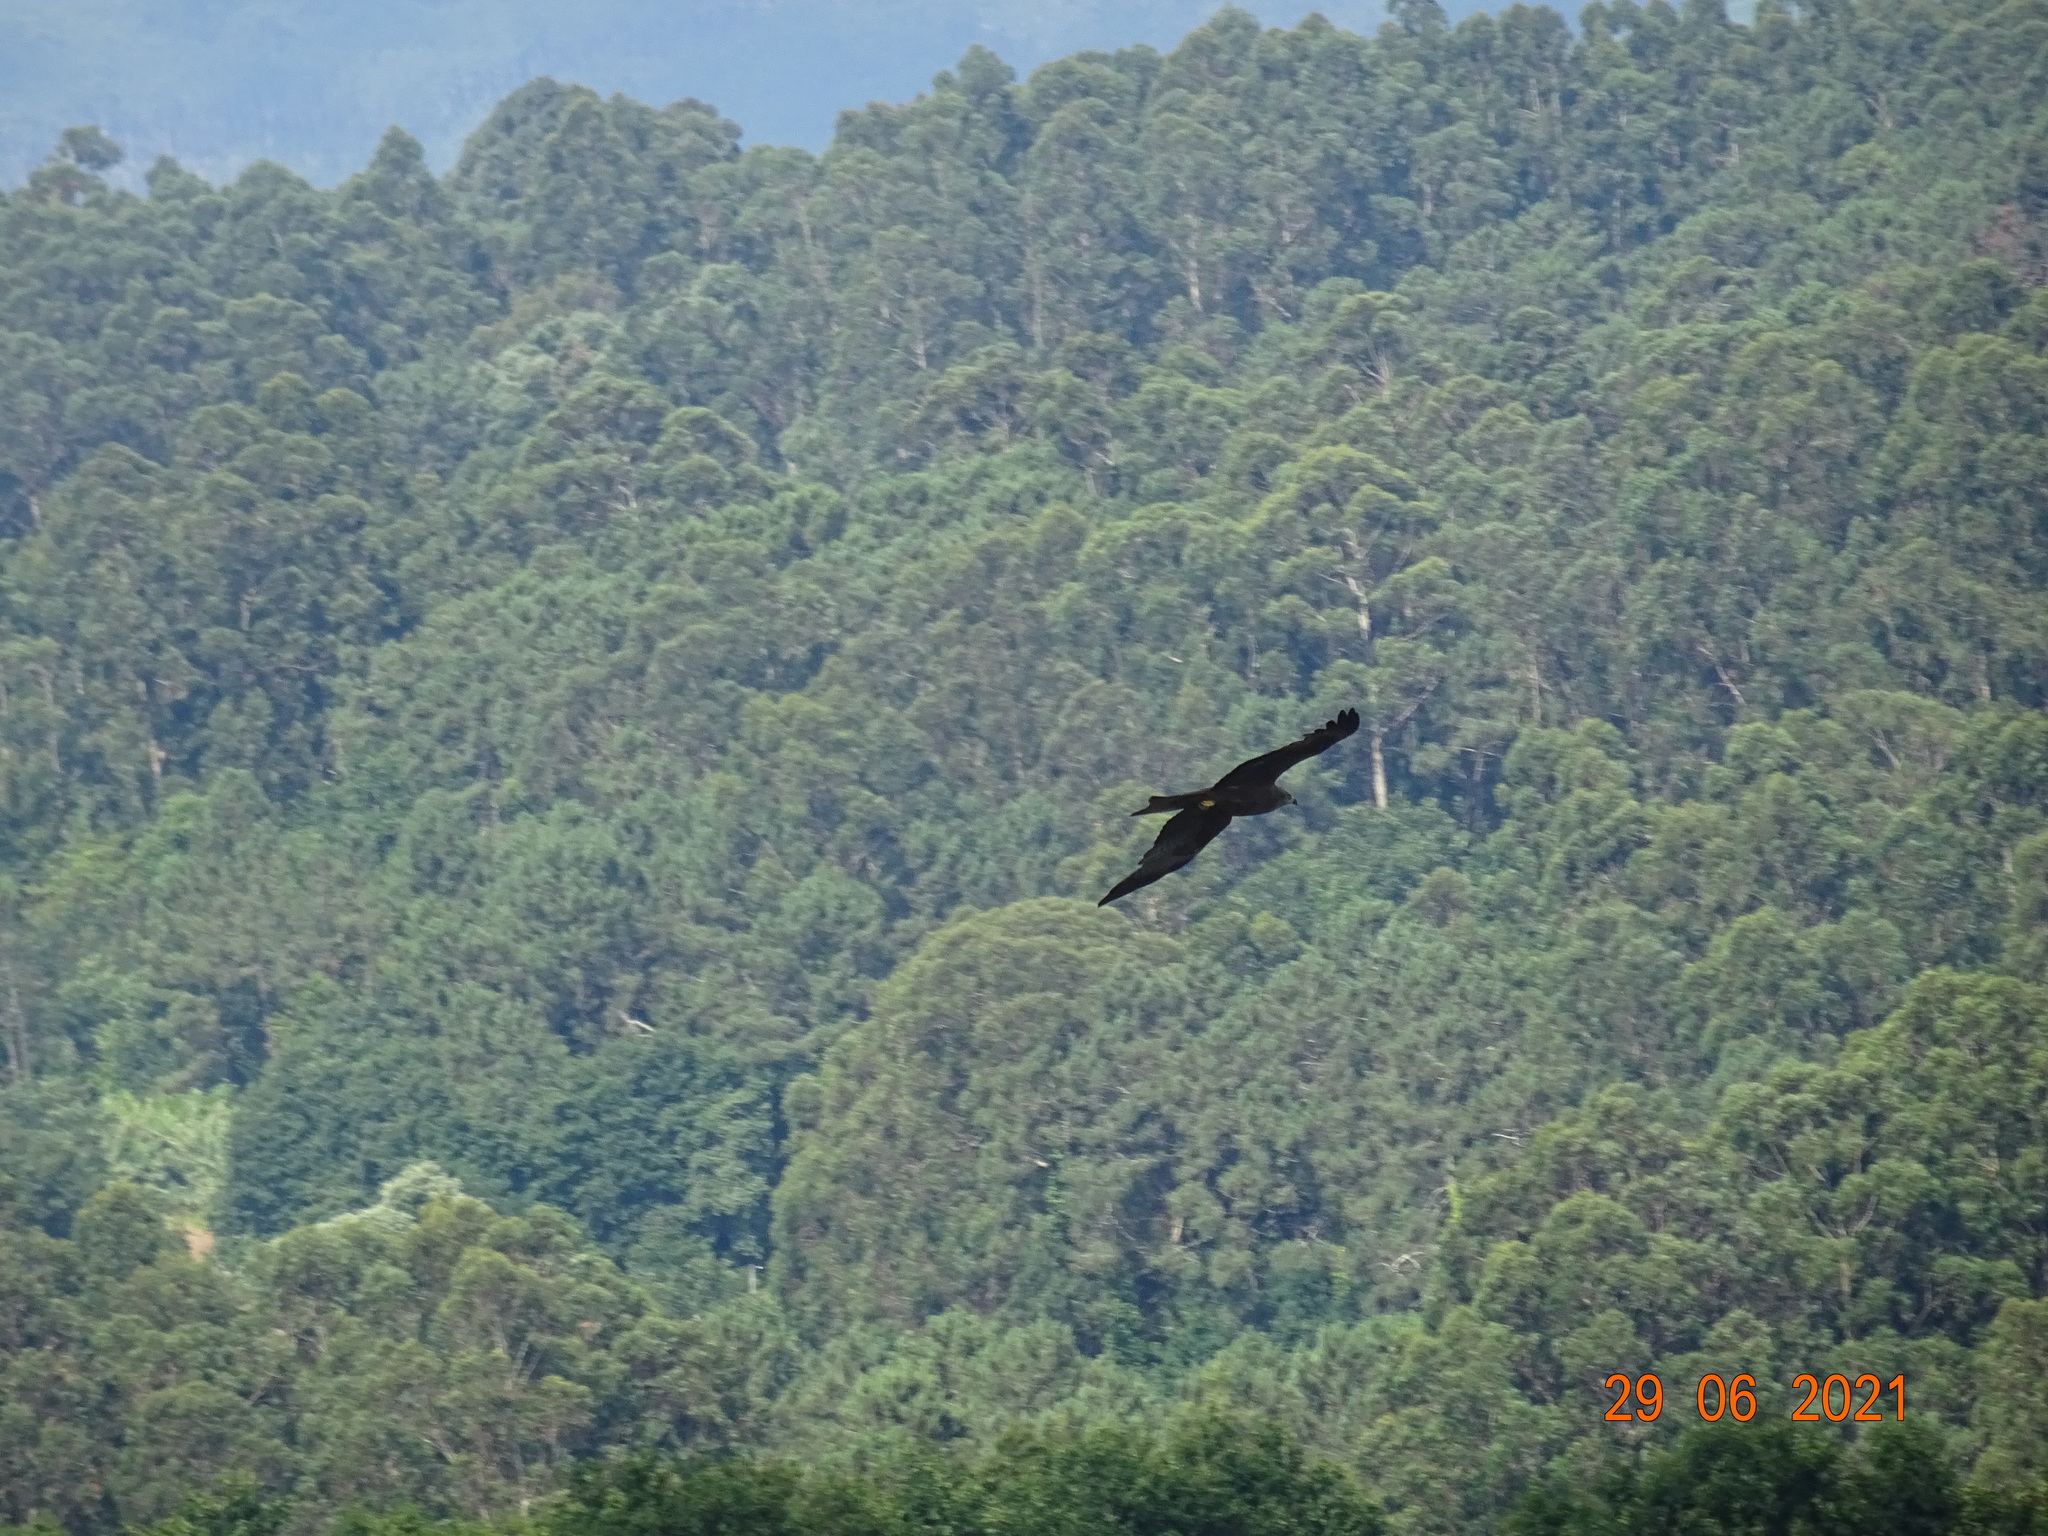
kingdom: Animalia
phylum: Chordata
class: Aves
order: Accipitriformes
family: Accipitridae
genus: Milvus
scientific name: Milvus migrans
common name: Black kite
